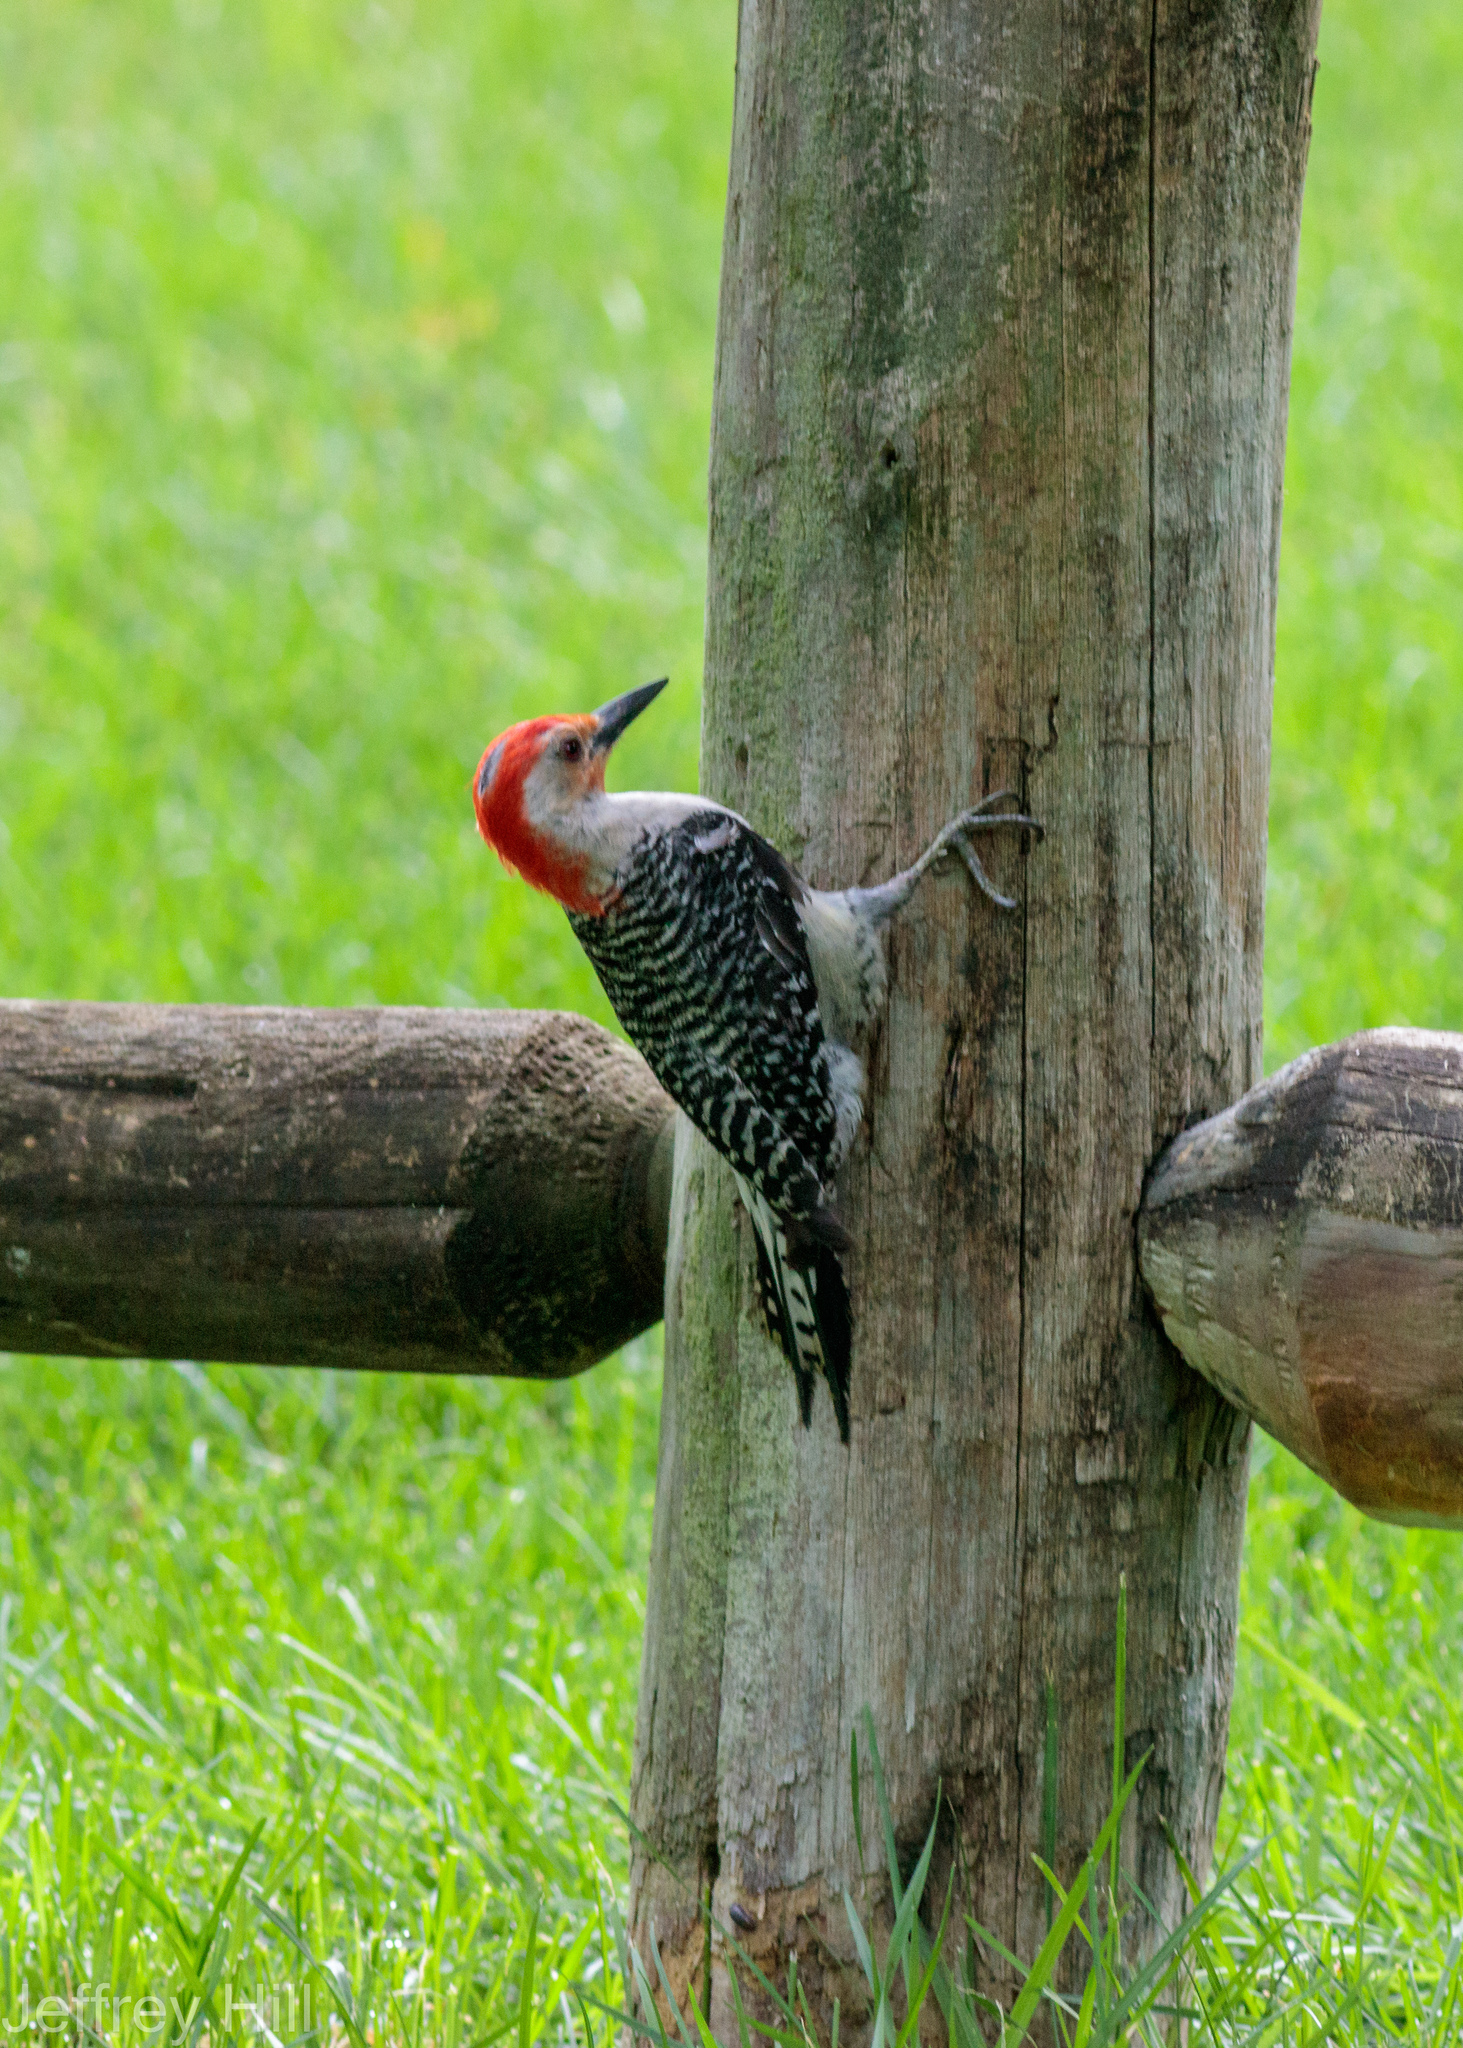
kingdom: Animalia
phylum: Chordata
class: Aves
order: Piciformes
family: Picidae
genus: Melanerpes
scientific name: Melanerpes carolinus
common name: Red-bellied woodpecker
